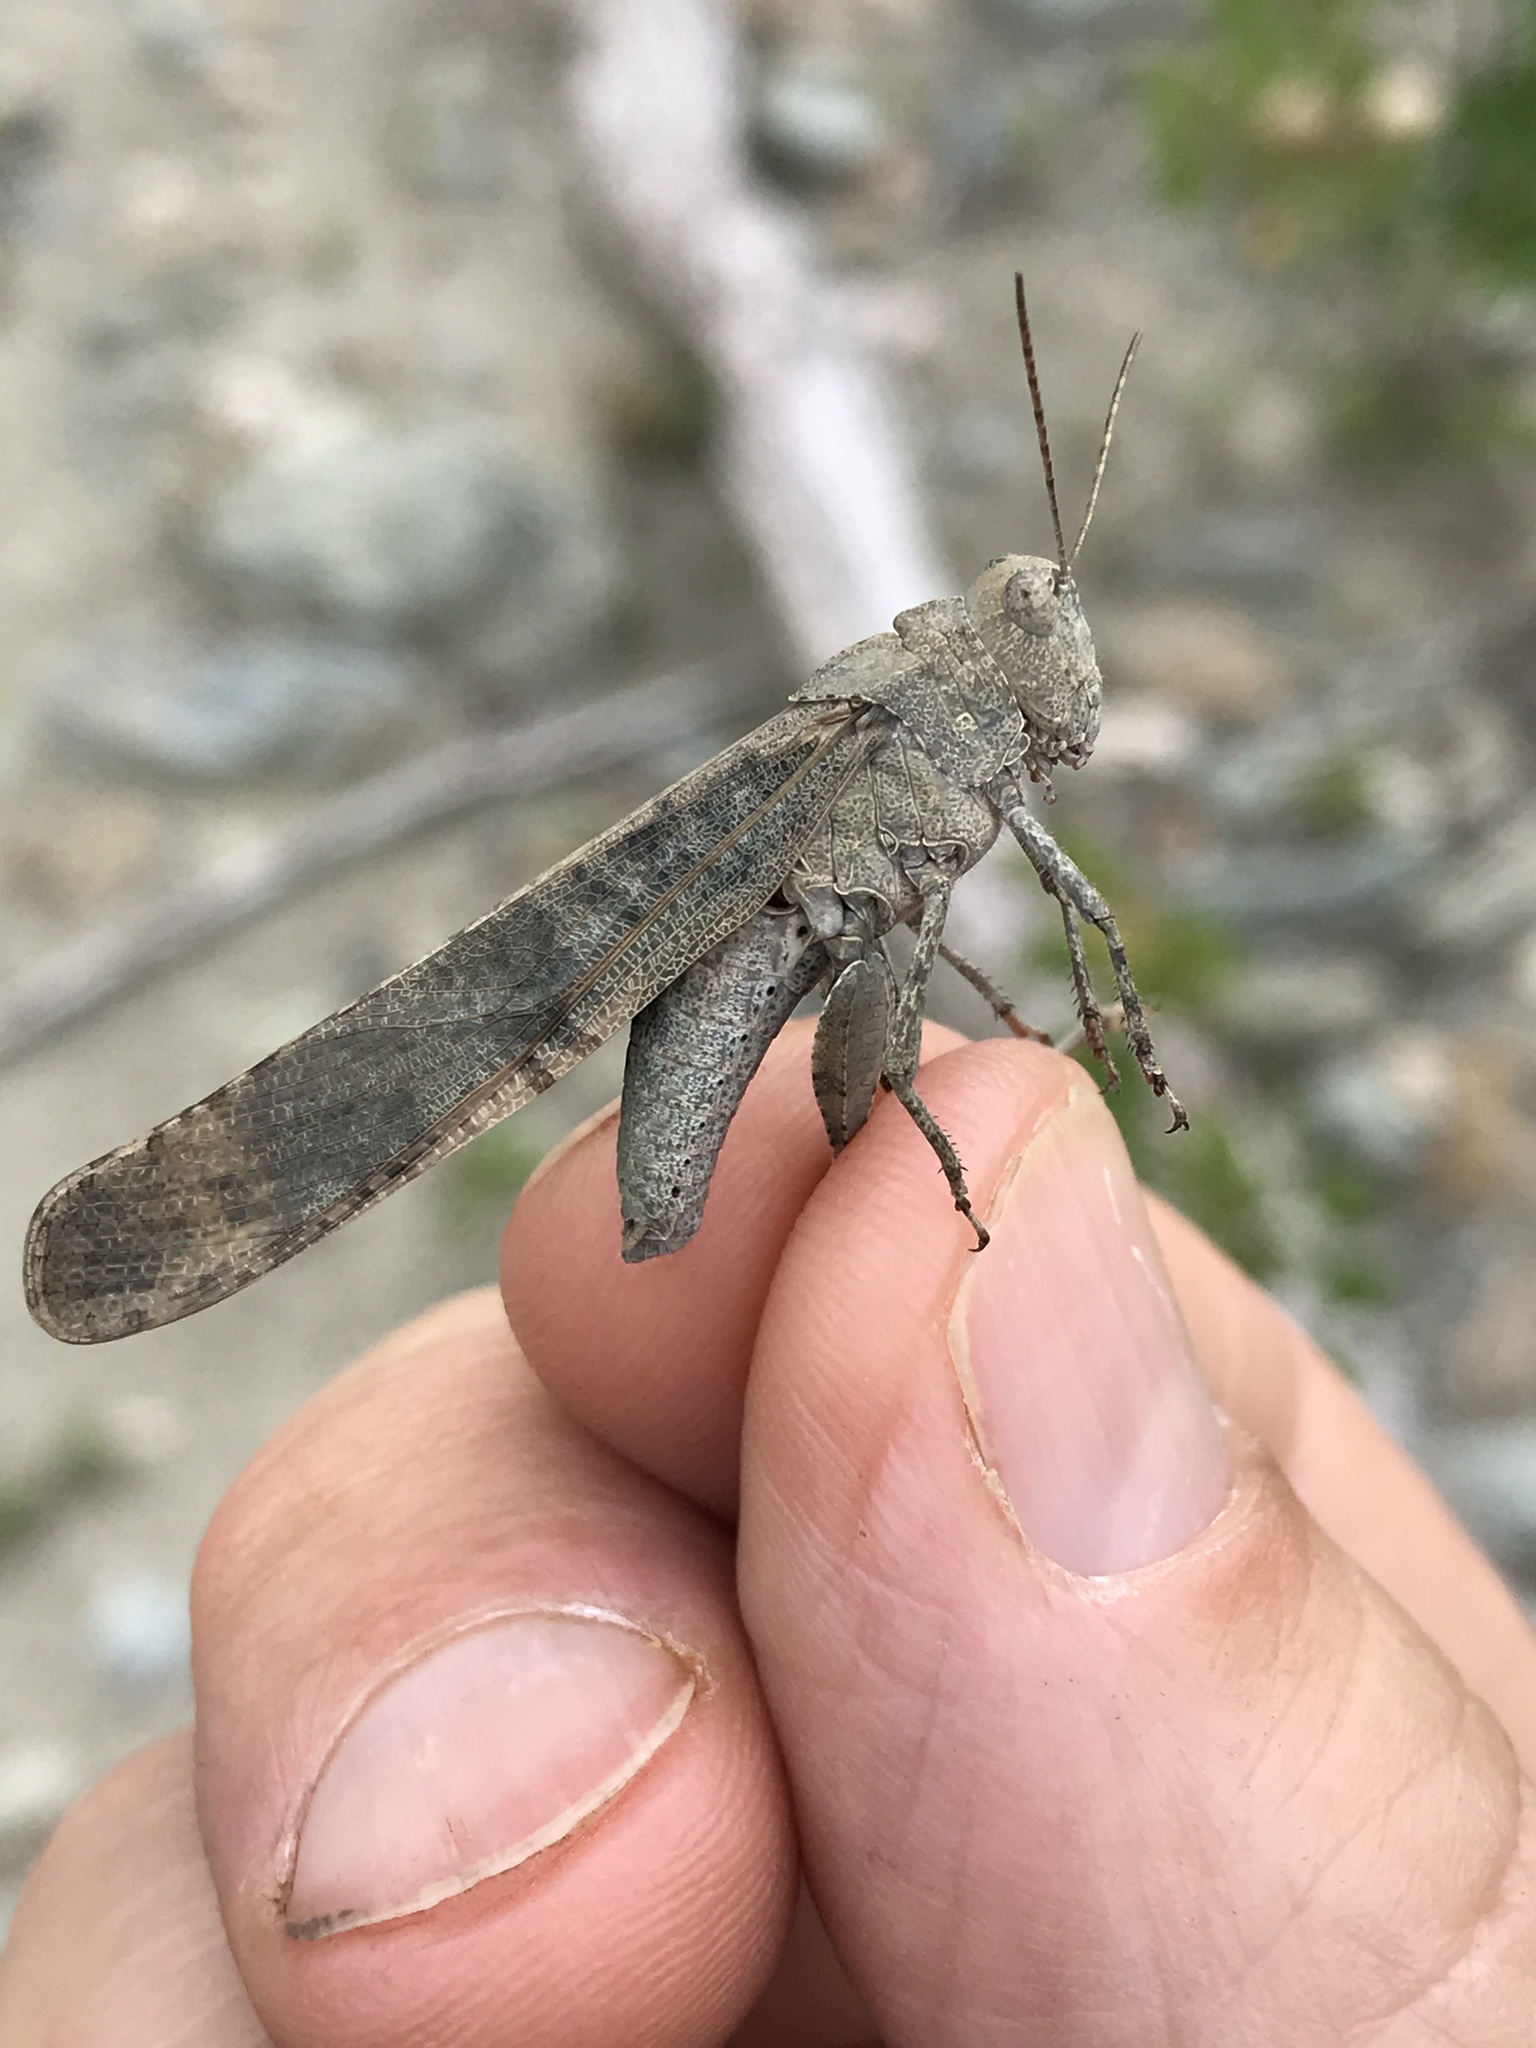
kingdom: Animalia
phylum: Arthropoda
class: Insecta
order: Orthoptera
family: Acrididae
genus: Dissosteira
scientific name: Dissosteira carolina
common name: Carolina grasshopper
